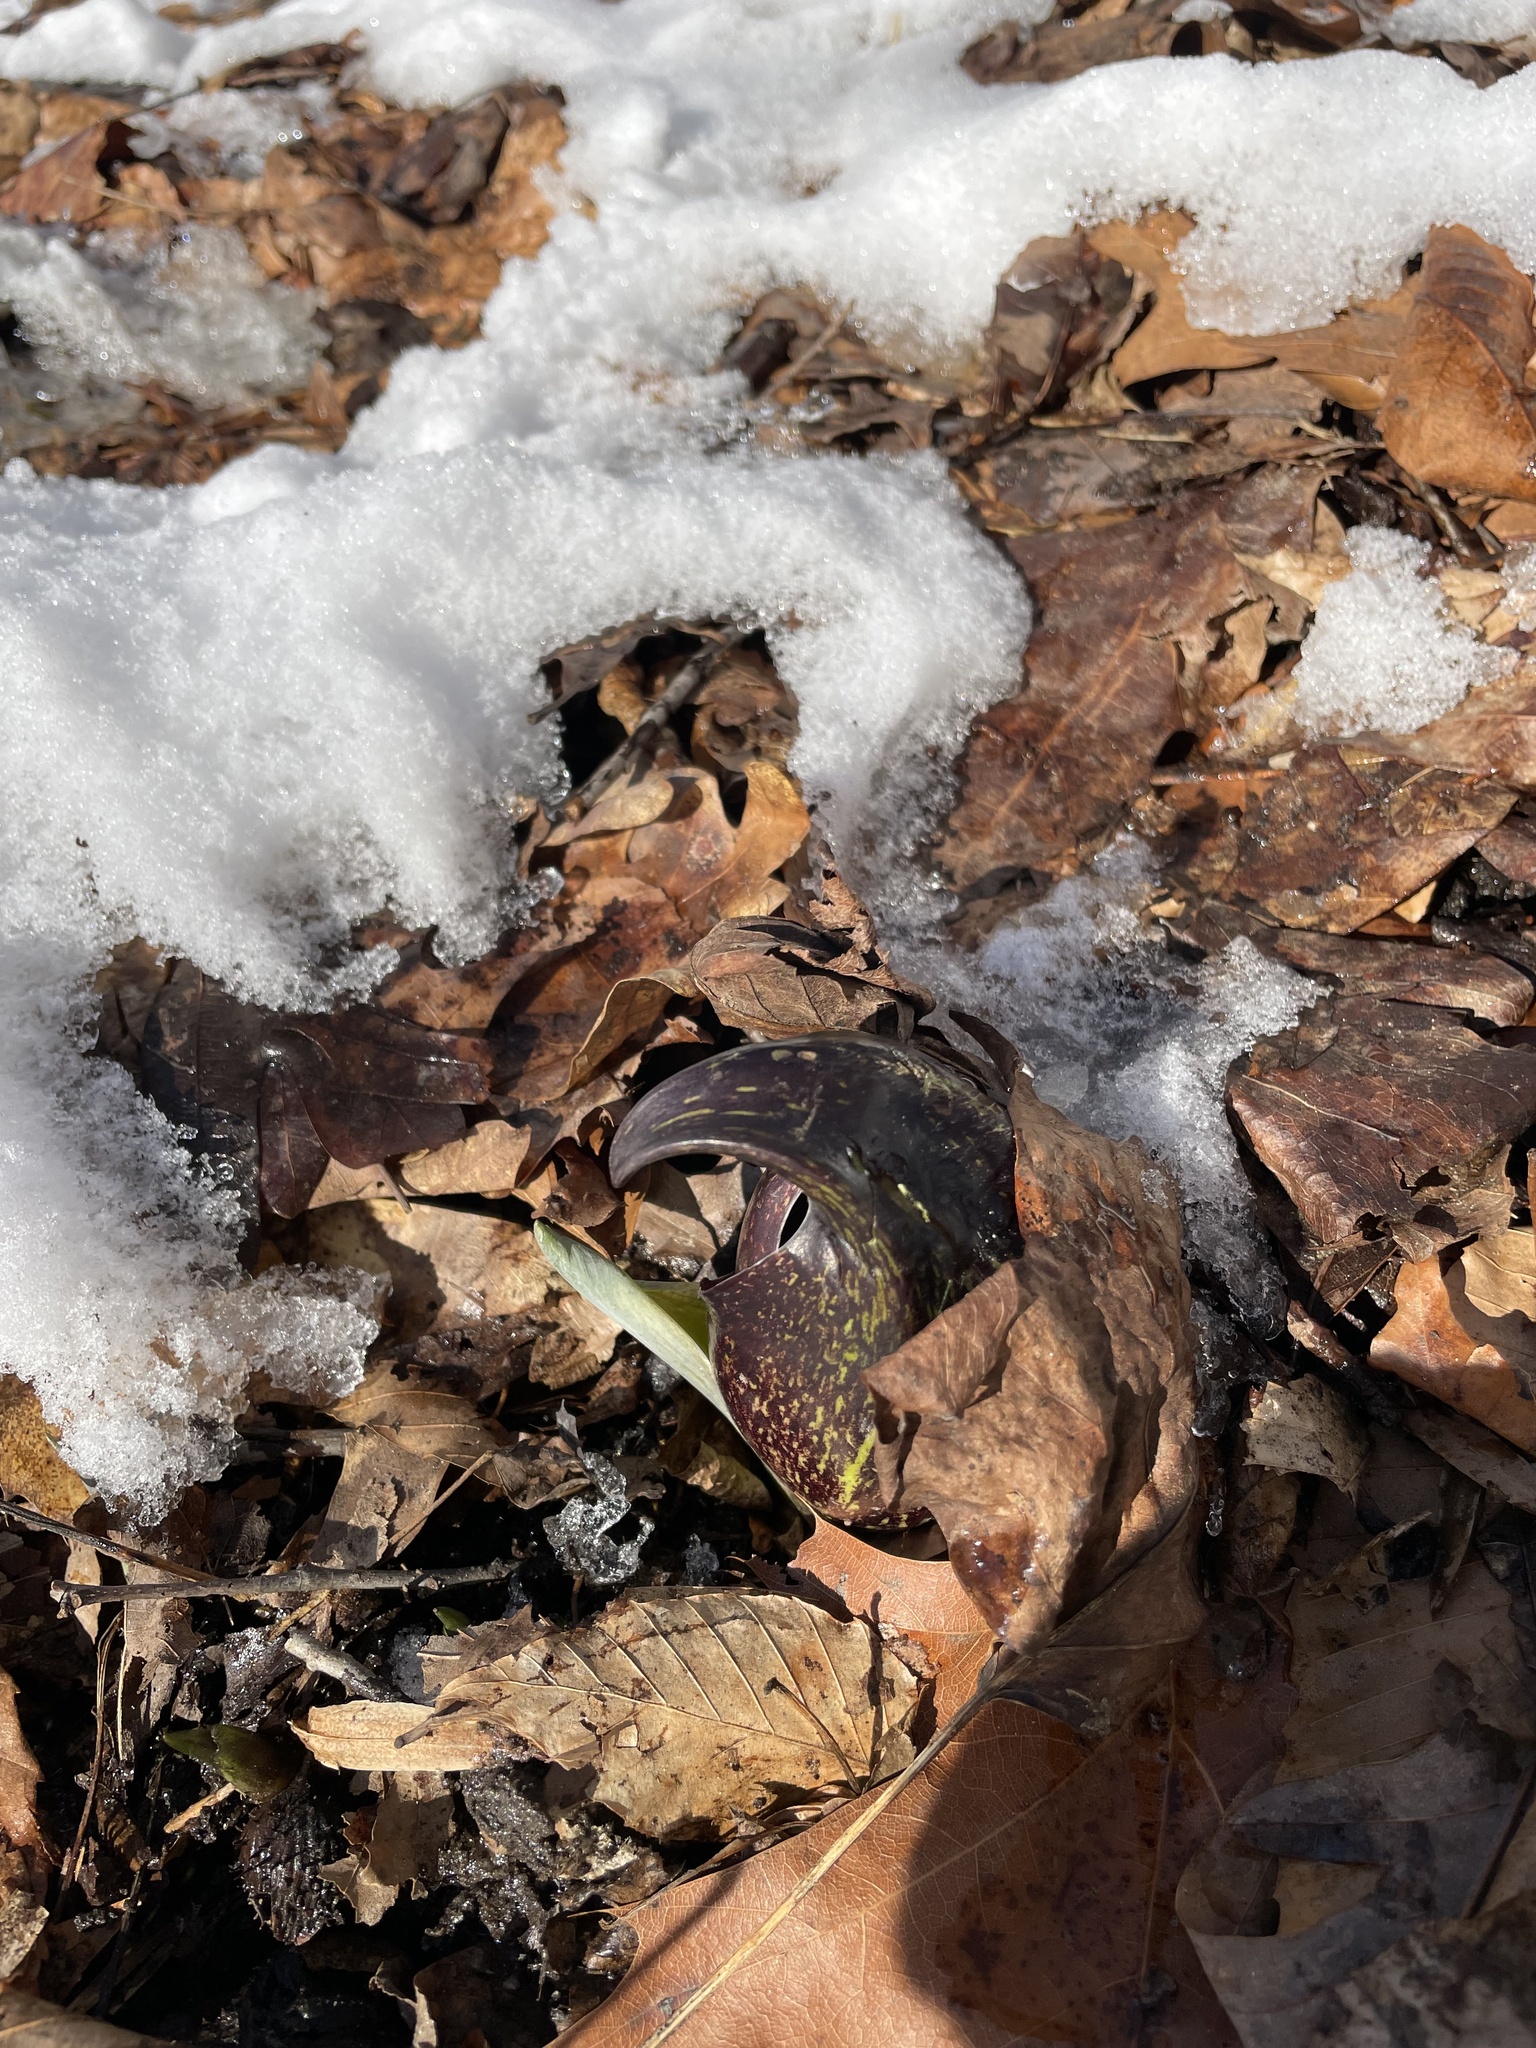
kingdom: Plantae
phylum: Tracheophyta
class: Liliopsida
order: Alismatales
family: Araceae
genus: Symplocarpus
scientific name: Symplocarpus foetidus
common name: Eastern skunk cabbage
